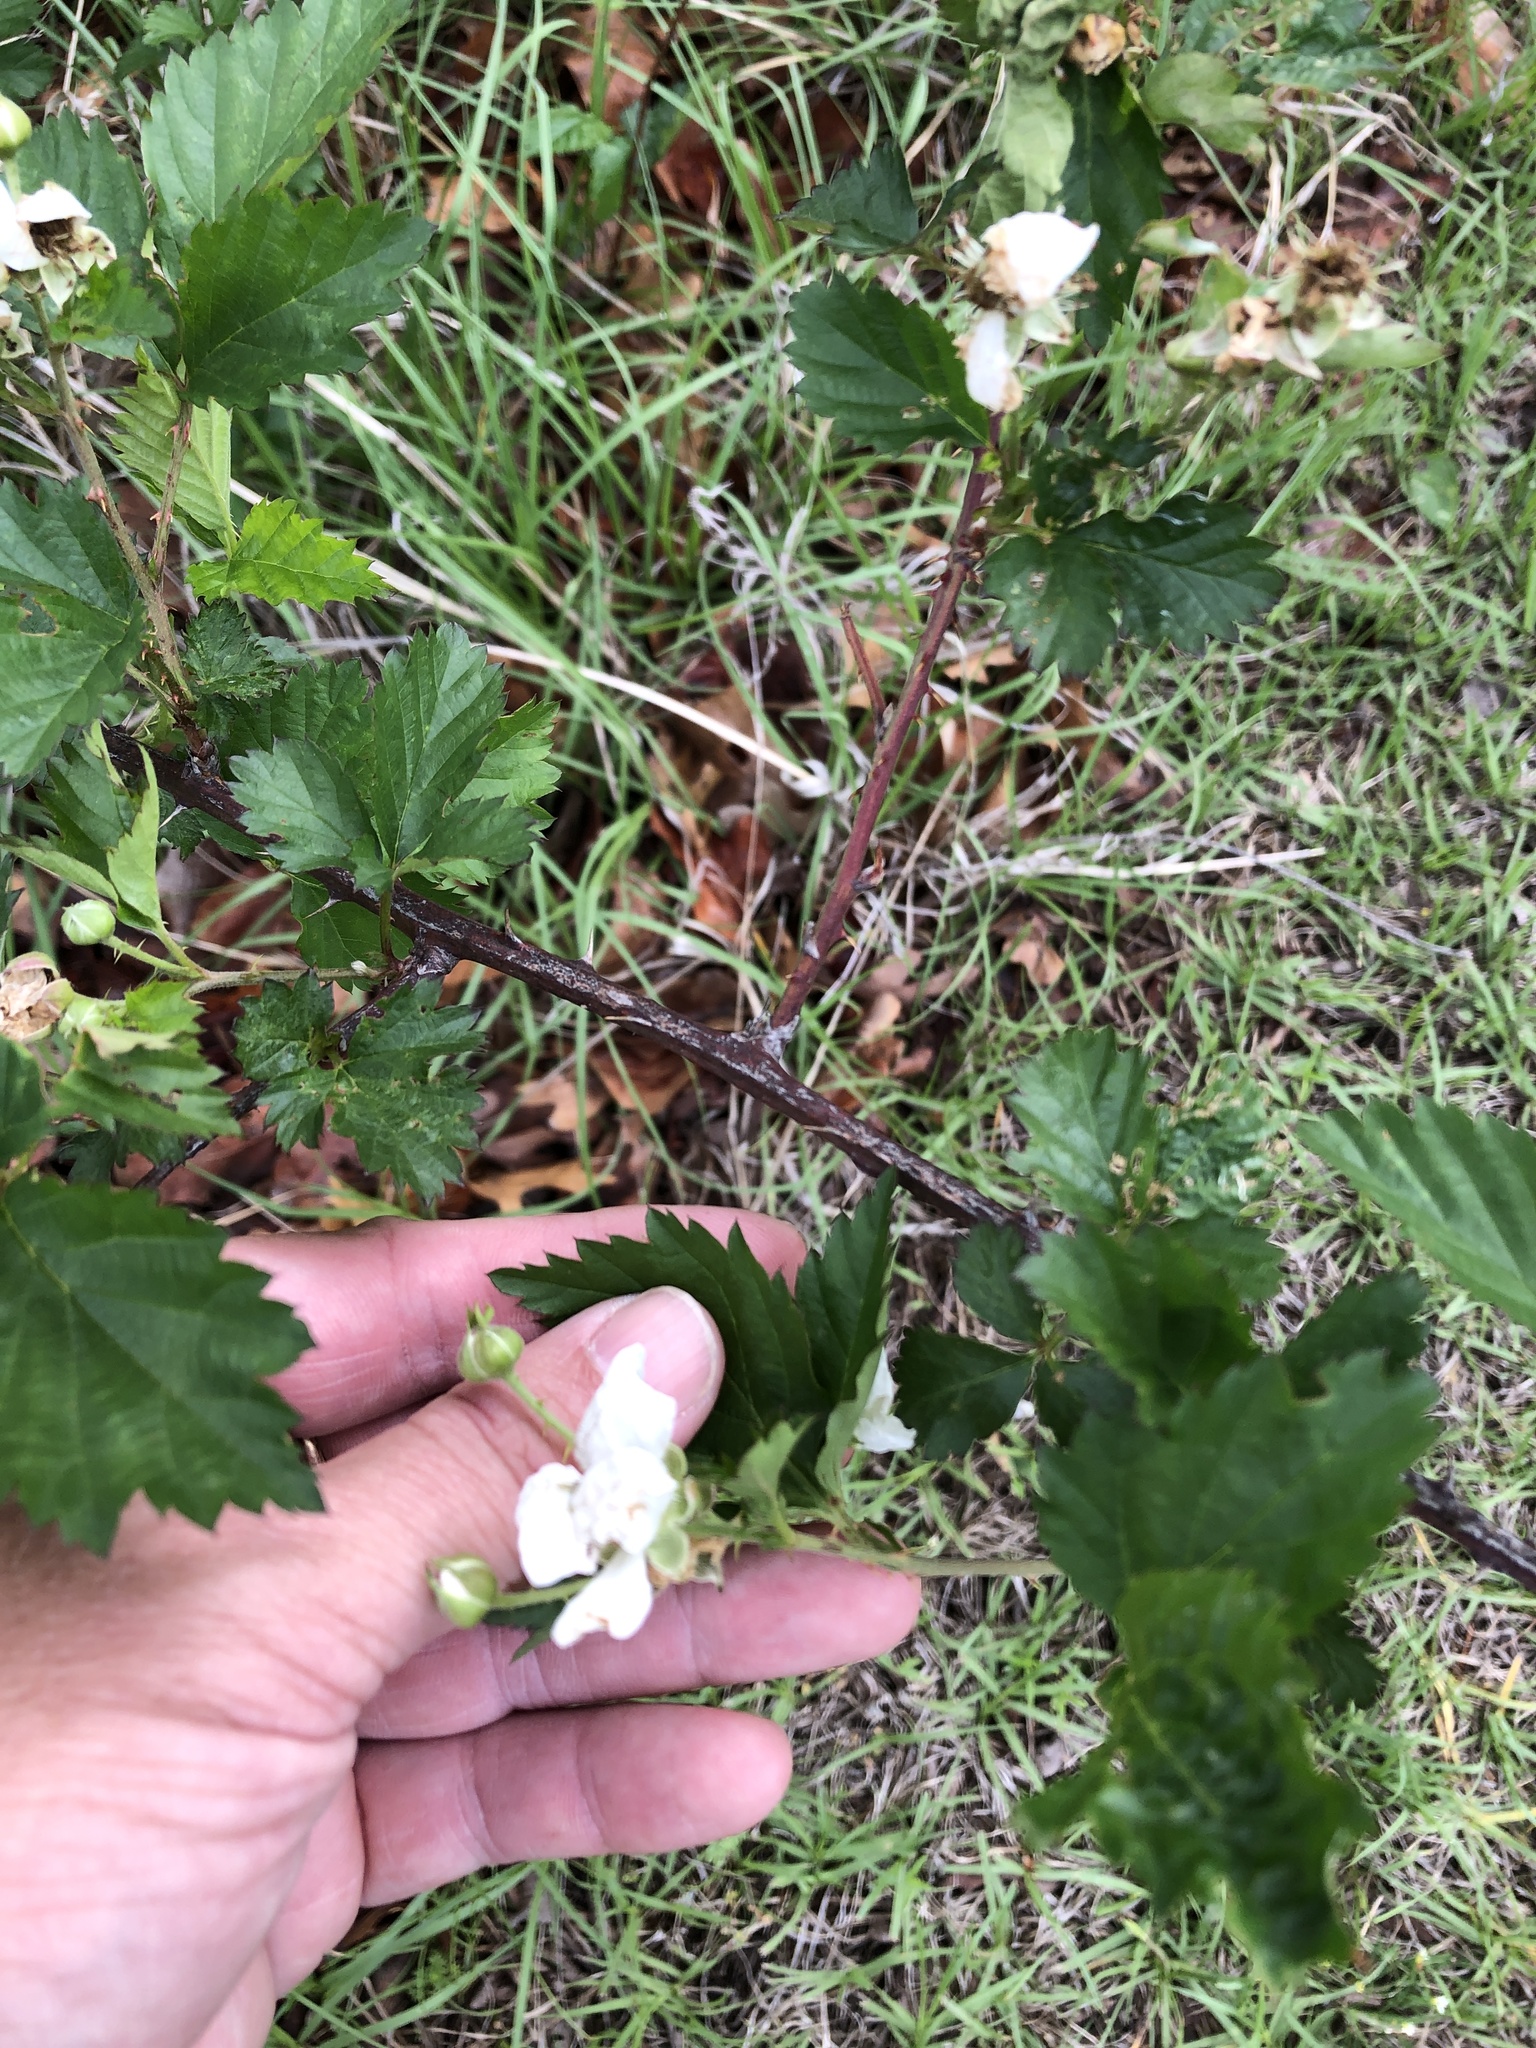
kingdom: Plantae
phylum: Tracheophyta
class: Magnoliopsida
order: Rosales
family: Rosaceae
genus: Rubus
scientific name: Rubus oklahomus
